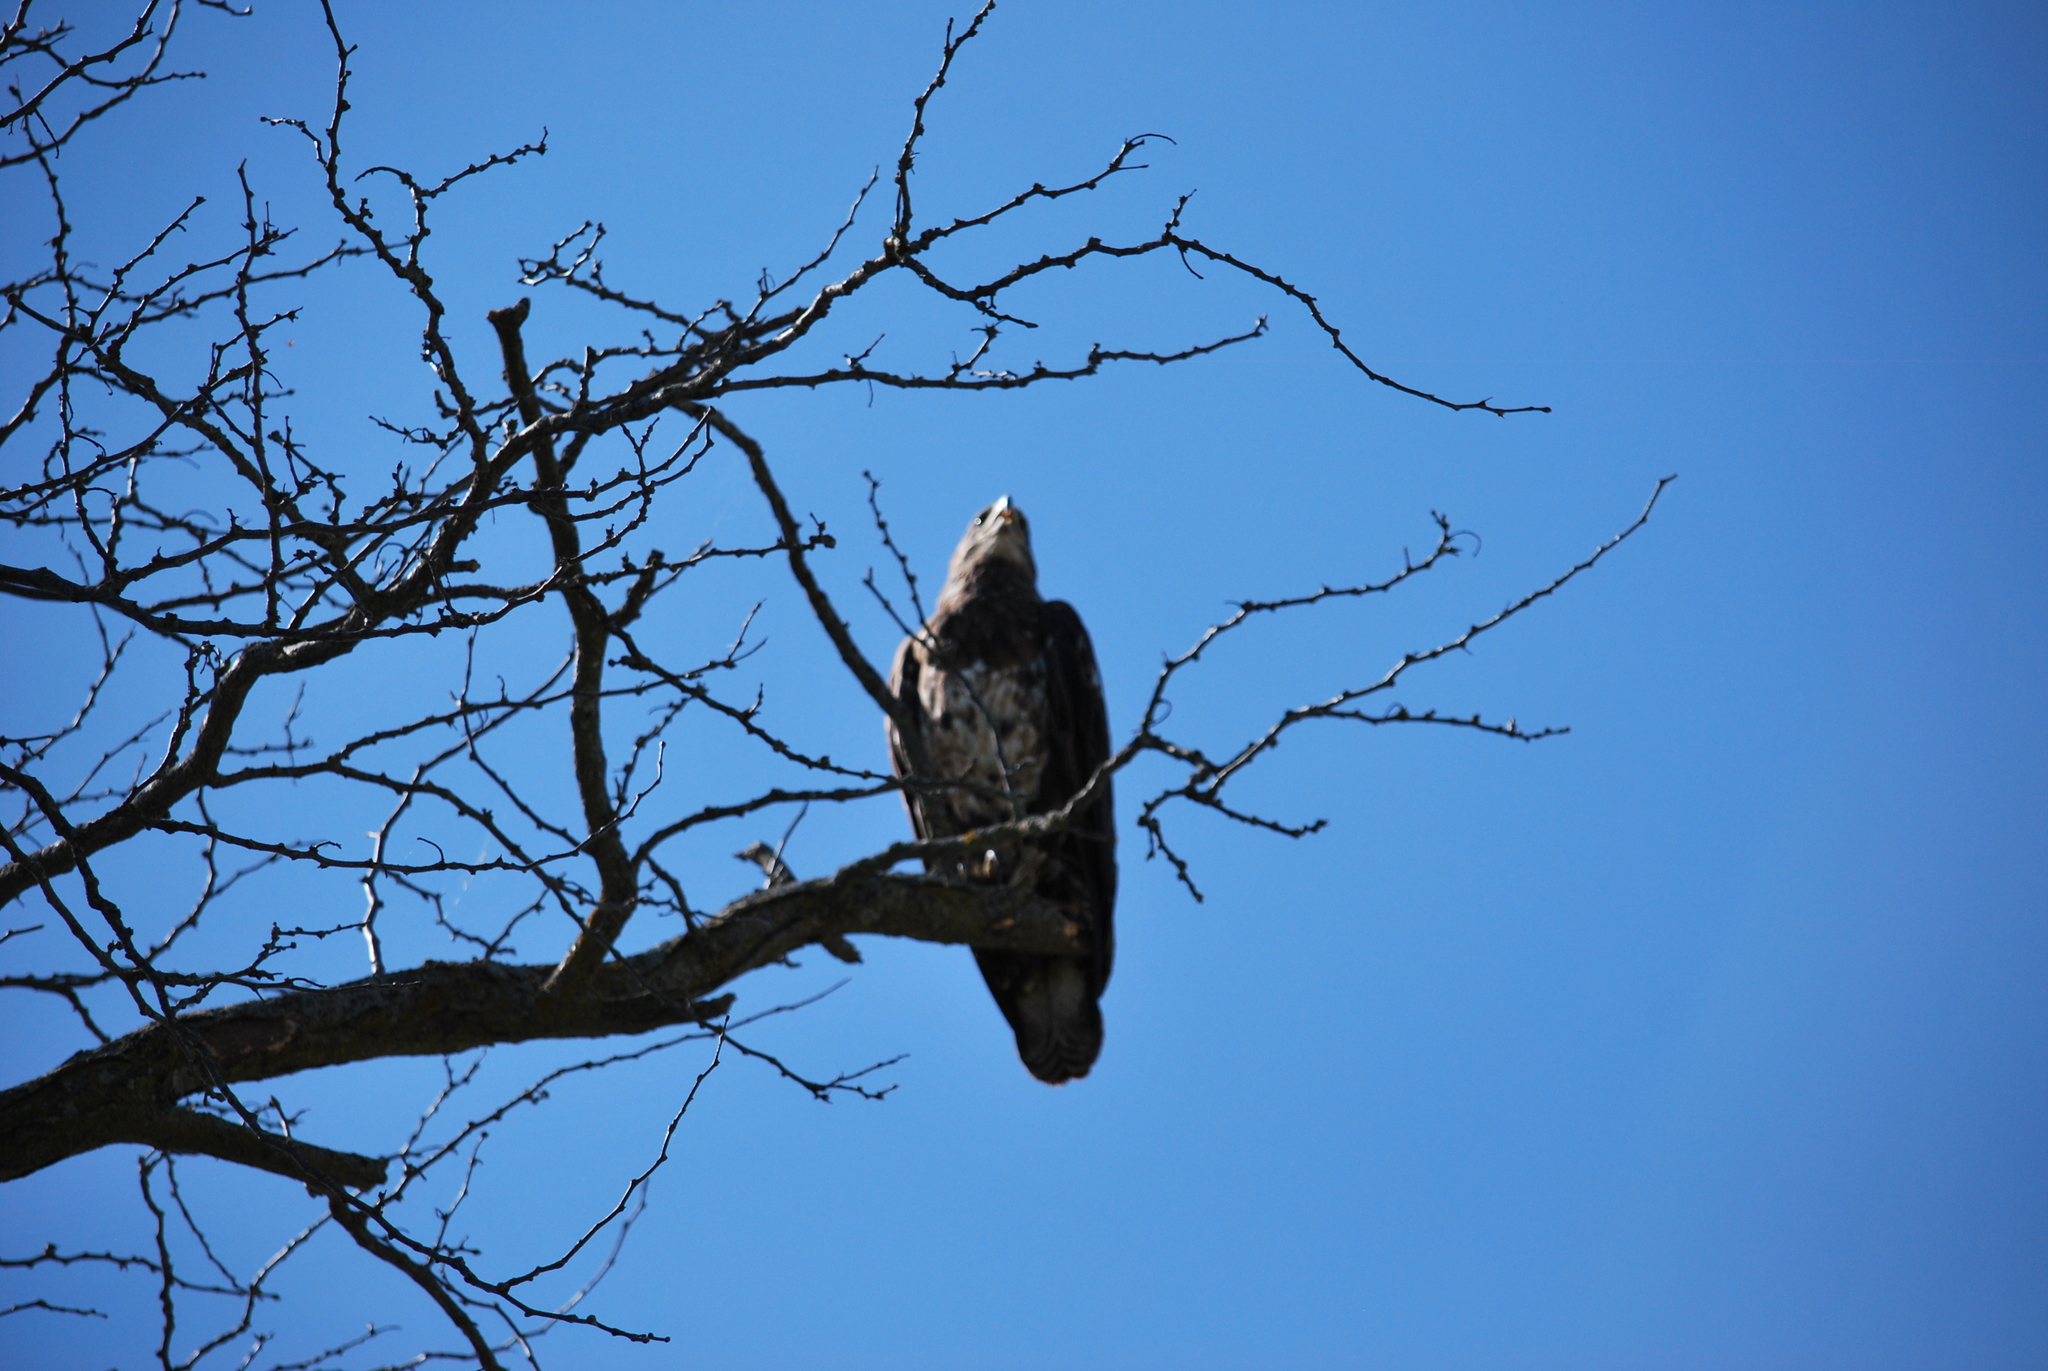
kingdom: Animalia
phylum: Chordata
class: Aves
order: Accipitriformes
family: Accipitridae
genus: Haliaeetus
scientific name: Haliaeetus leucocephalus
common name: Bald eagle
